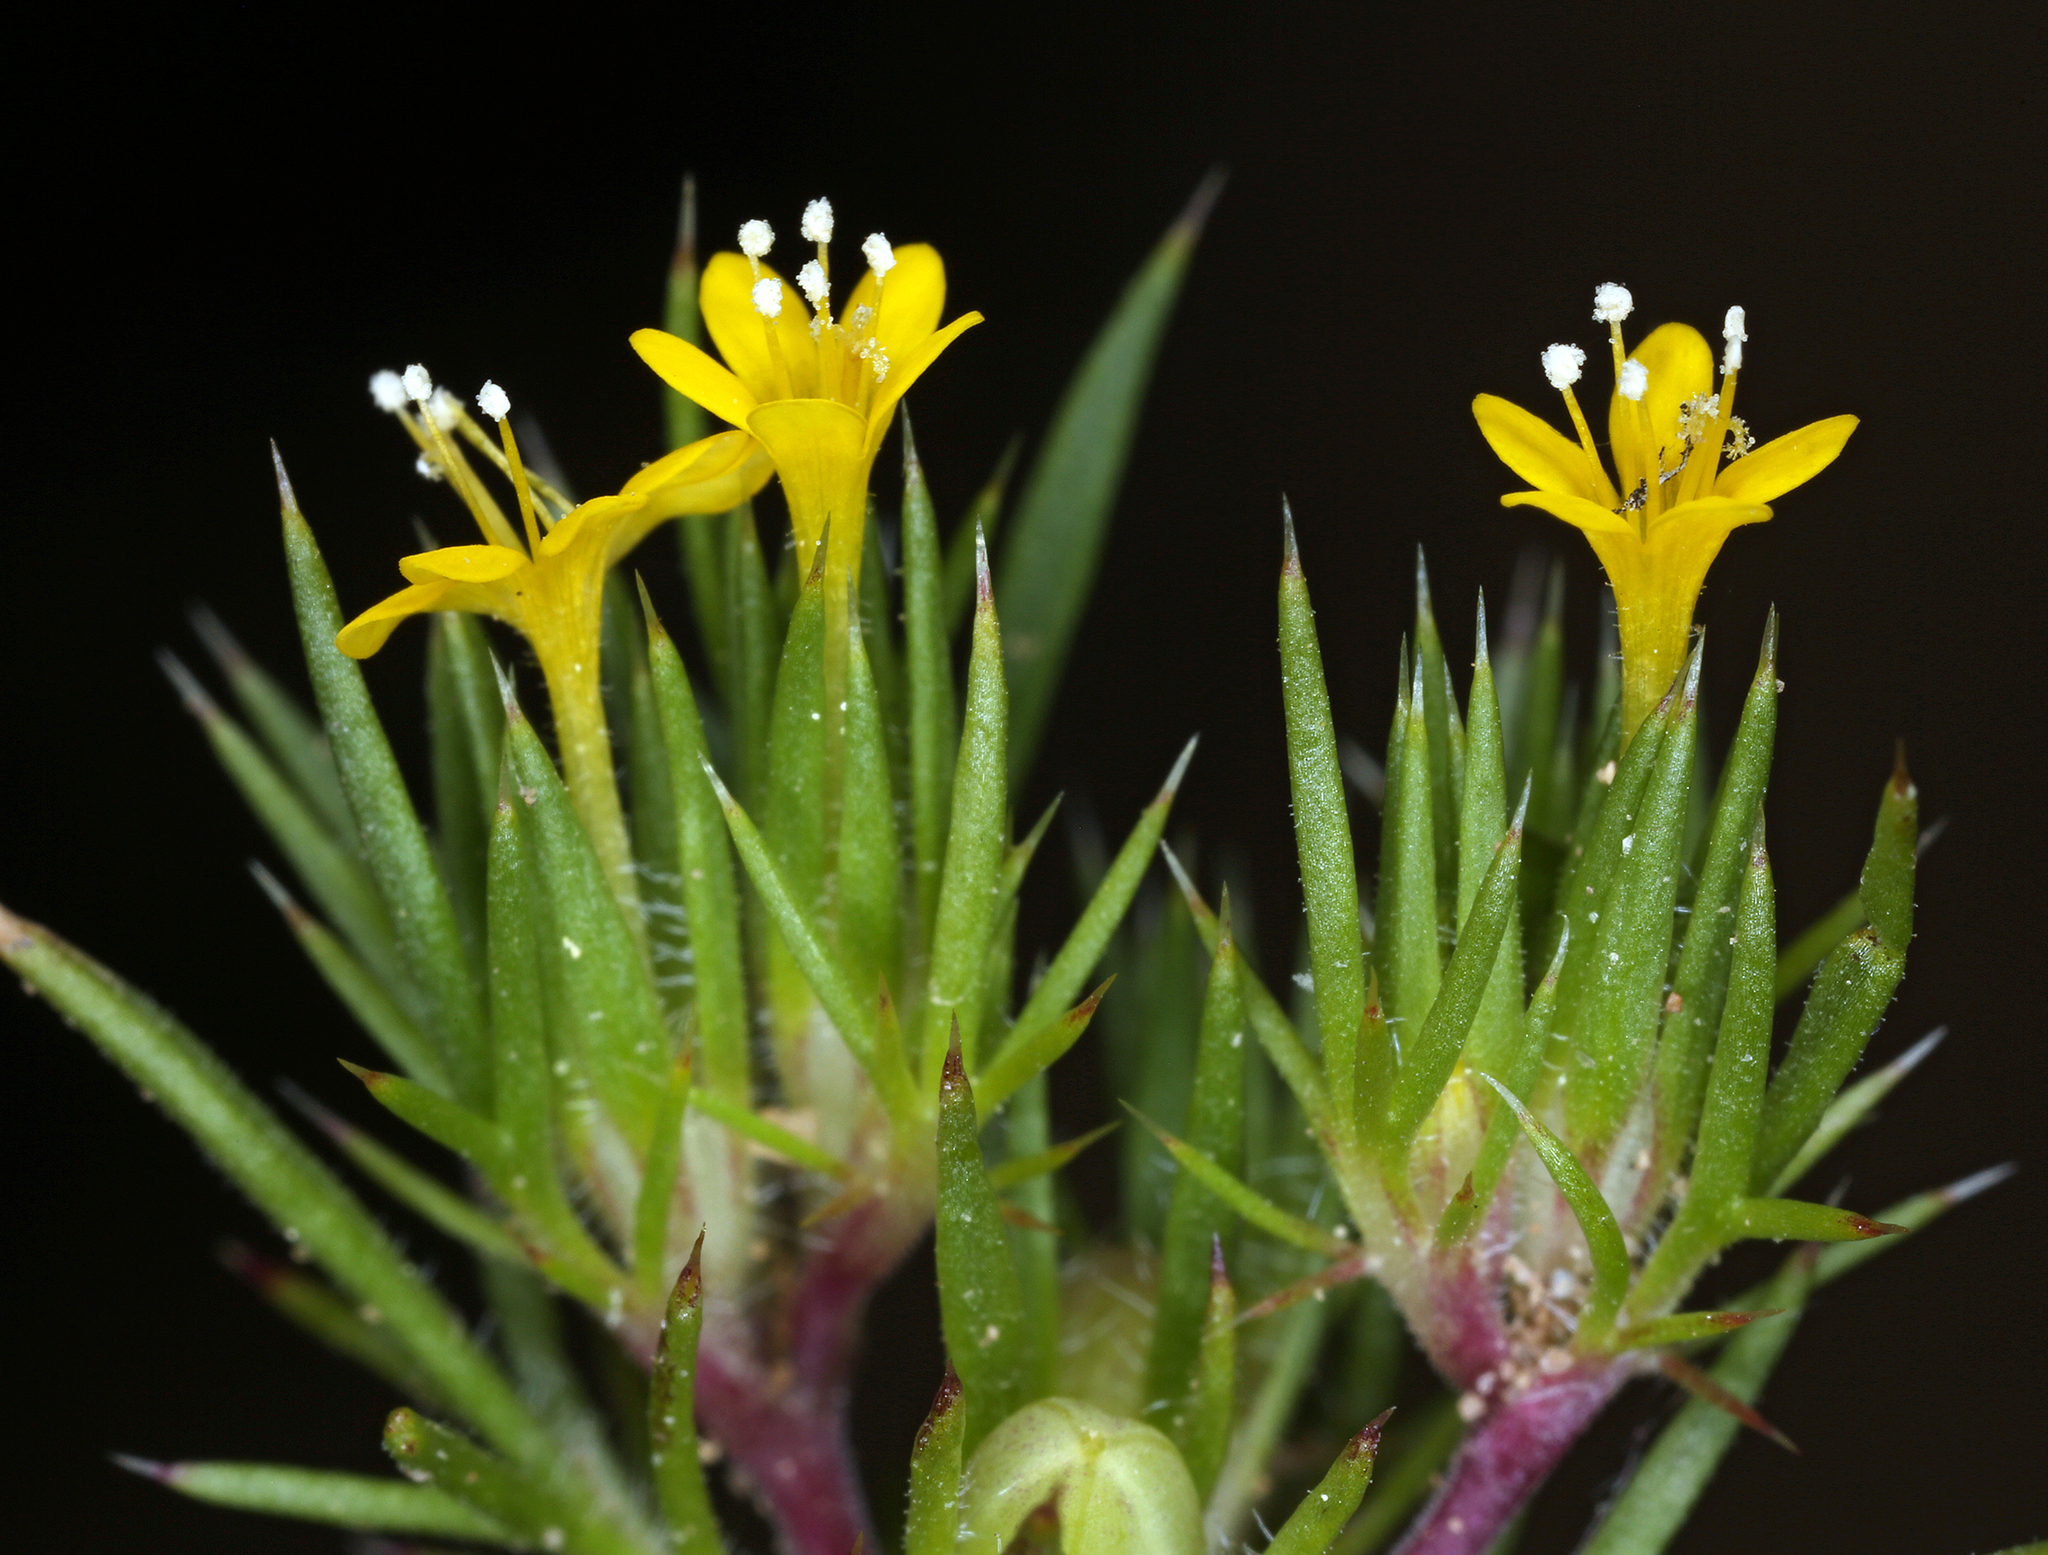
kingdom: Plantae
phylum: Tracheophyta
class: Magnoliopsida
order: Ericales
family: Polemoniaceae
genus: Navarretia
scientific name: Navarretia breweri
